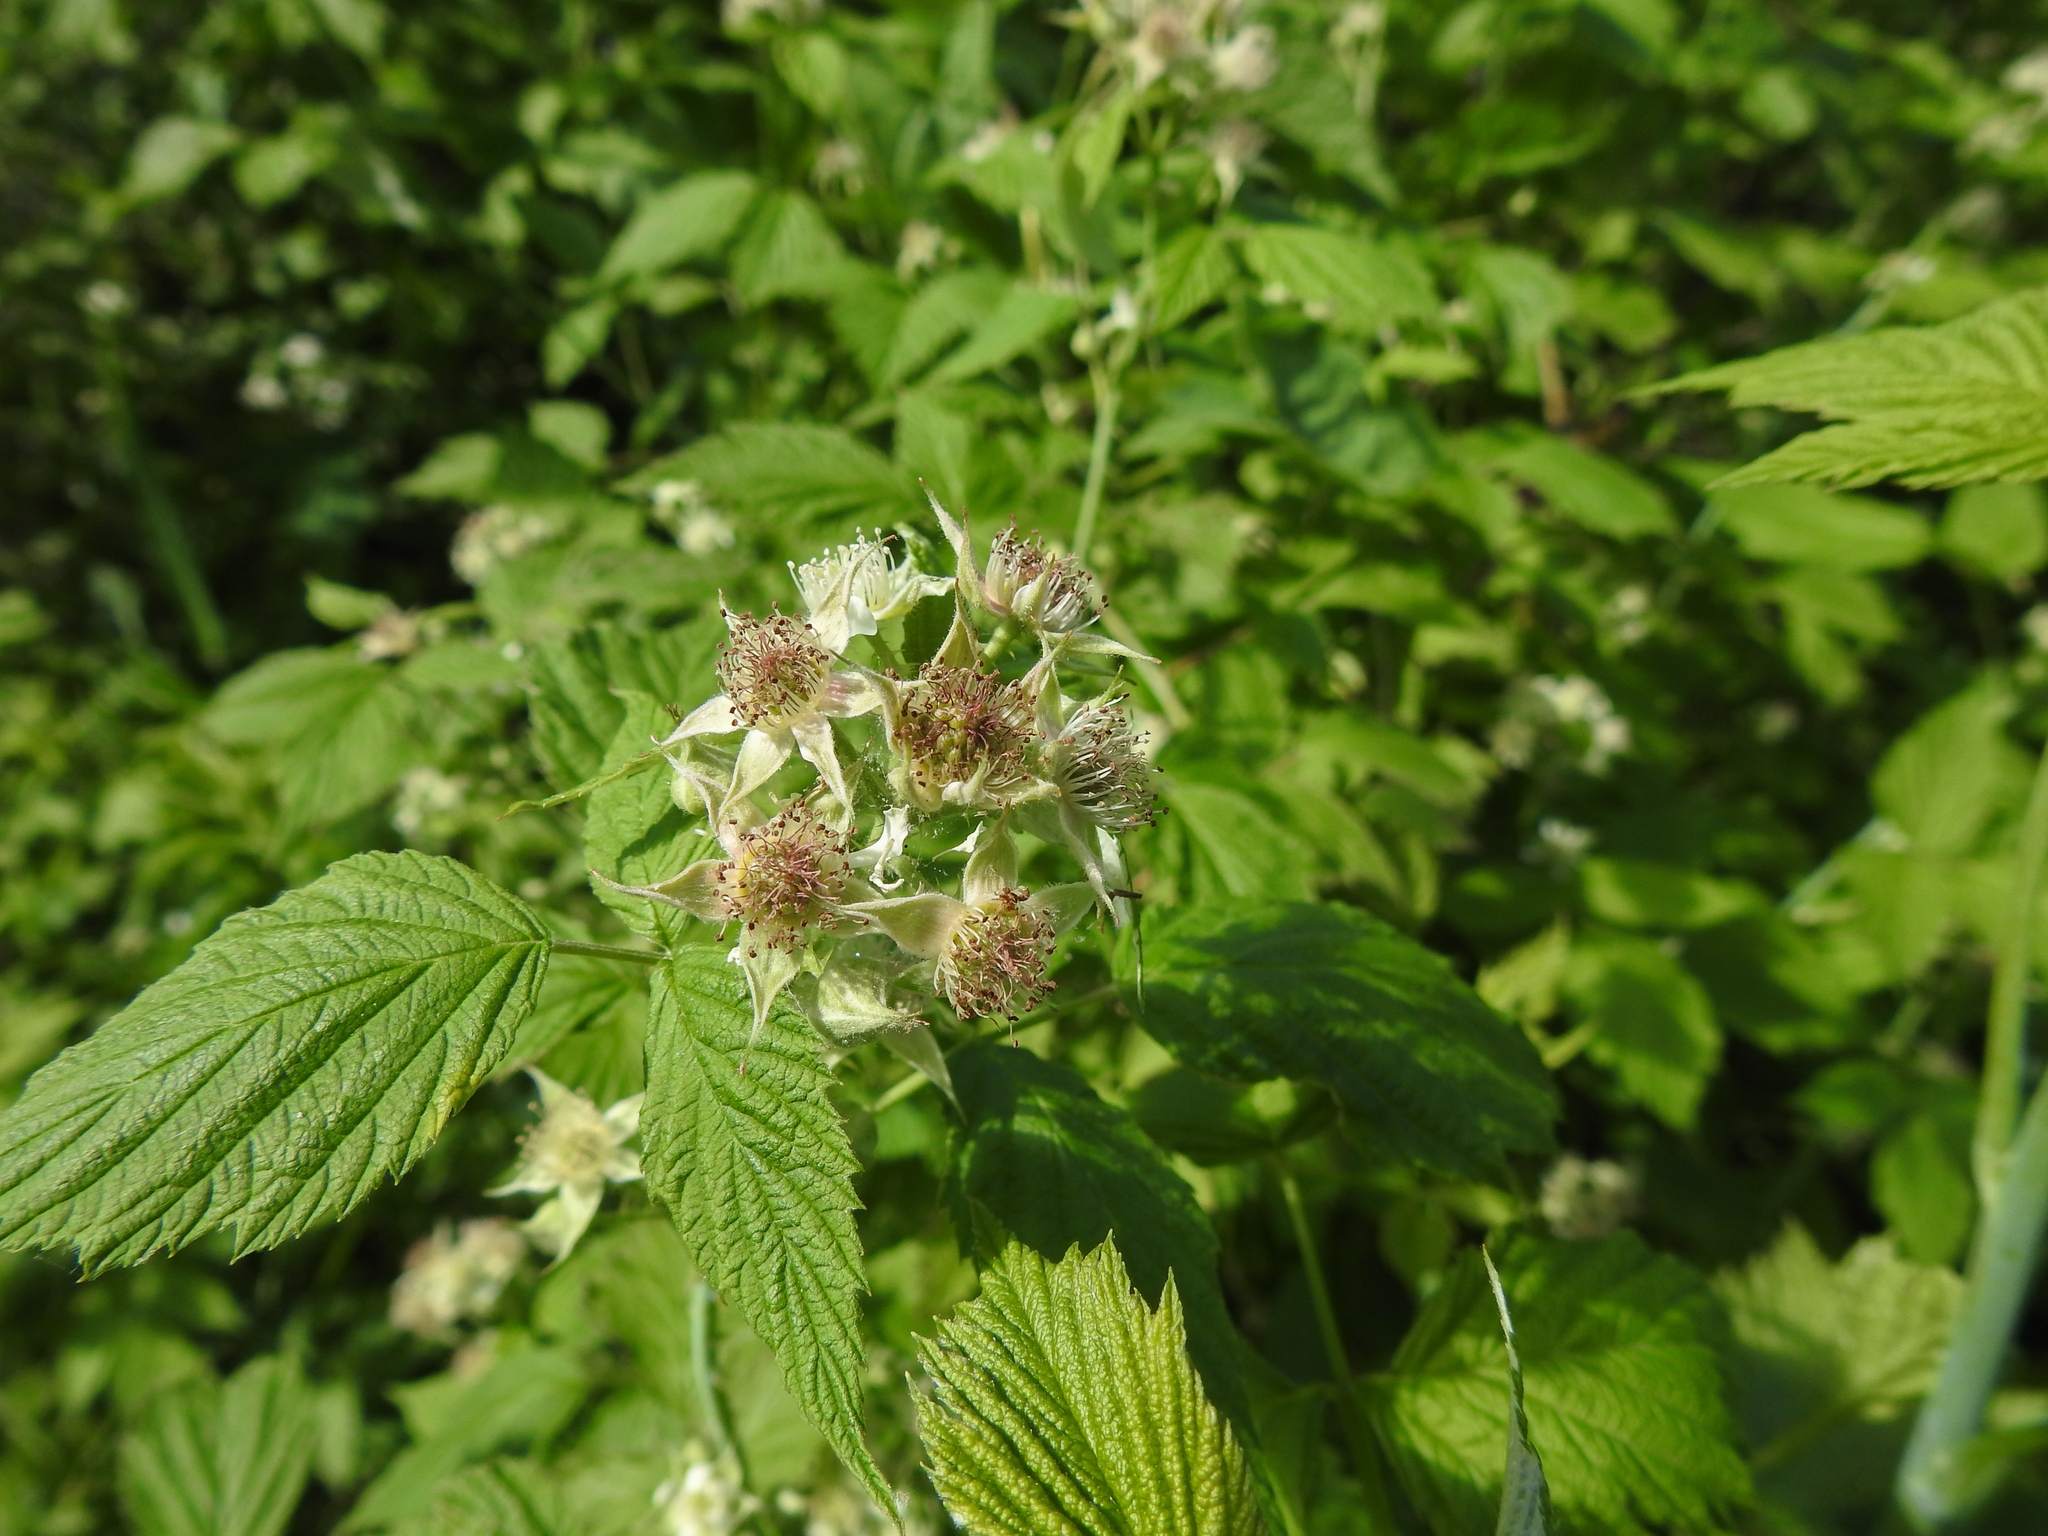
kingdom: Plantae
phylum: Tracheophyta
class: Magnoliopsida
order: Rosales
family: Rosaceae
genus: Rubus
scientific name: Rubus occidentalis
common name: Black raspberry
